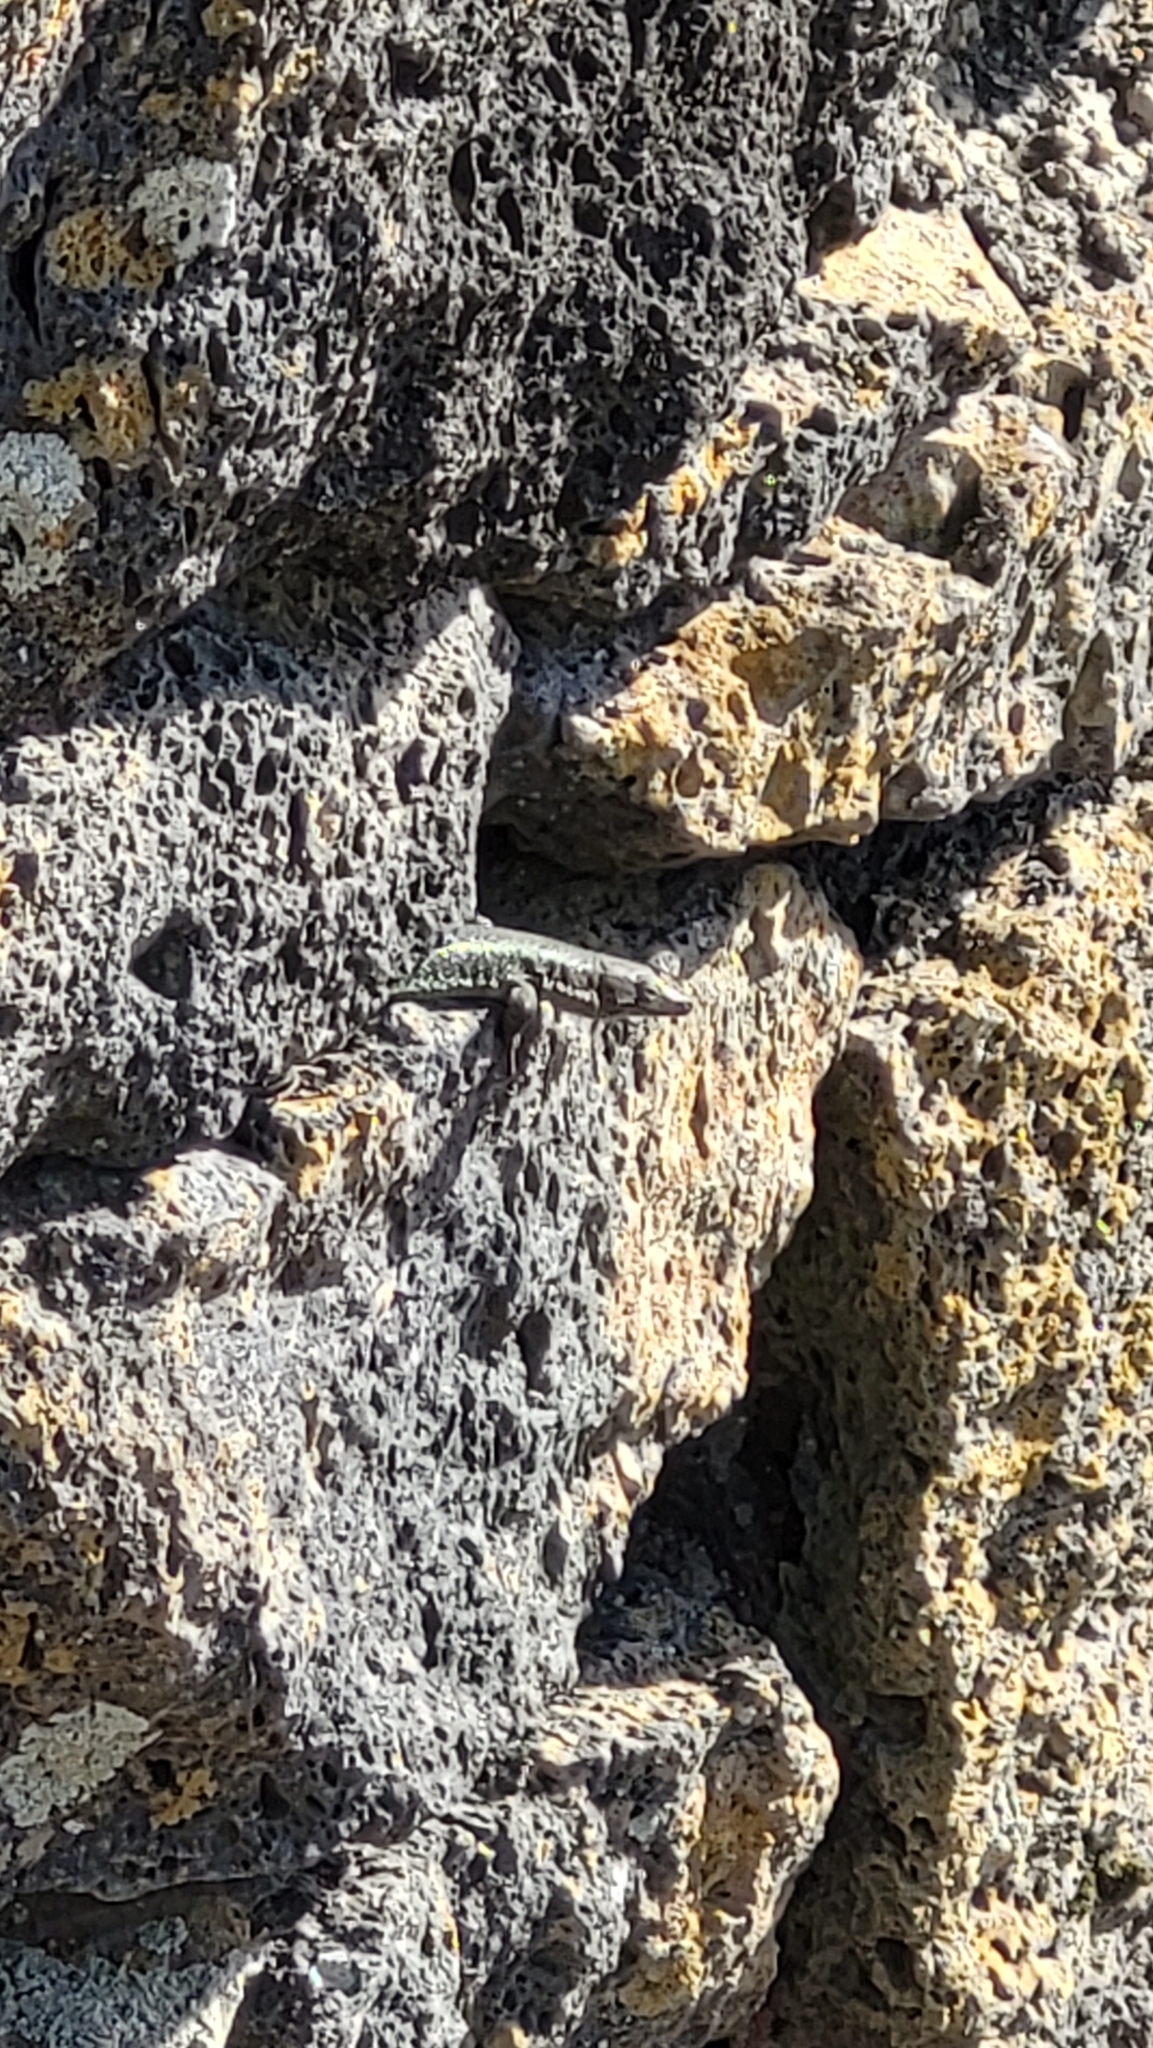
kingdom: Animalia
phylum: Chordata
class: Squamata
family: Lacertidae
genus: Teira
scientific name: Teira dugesii
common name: Madeira lizard
